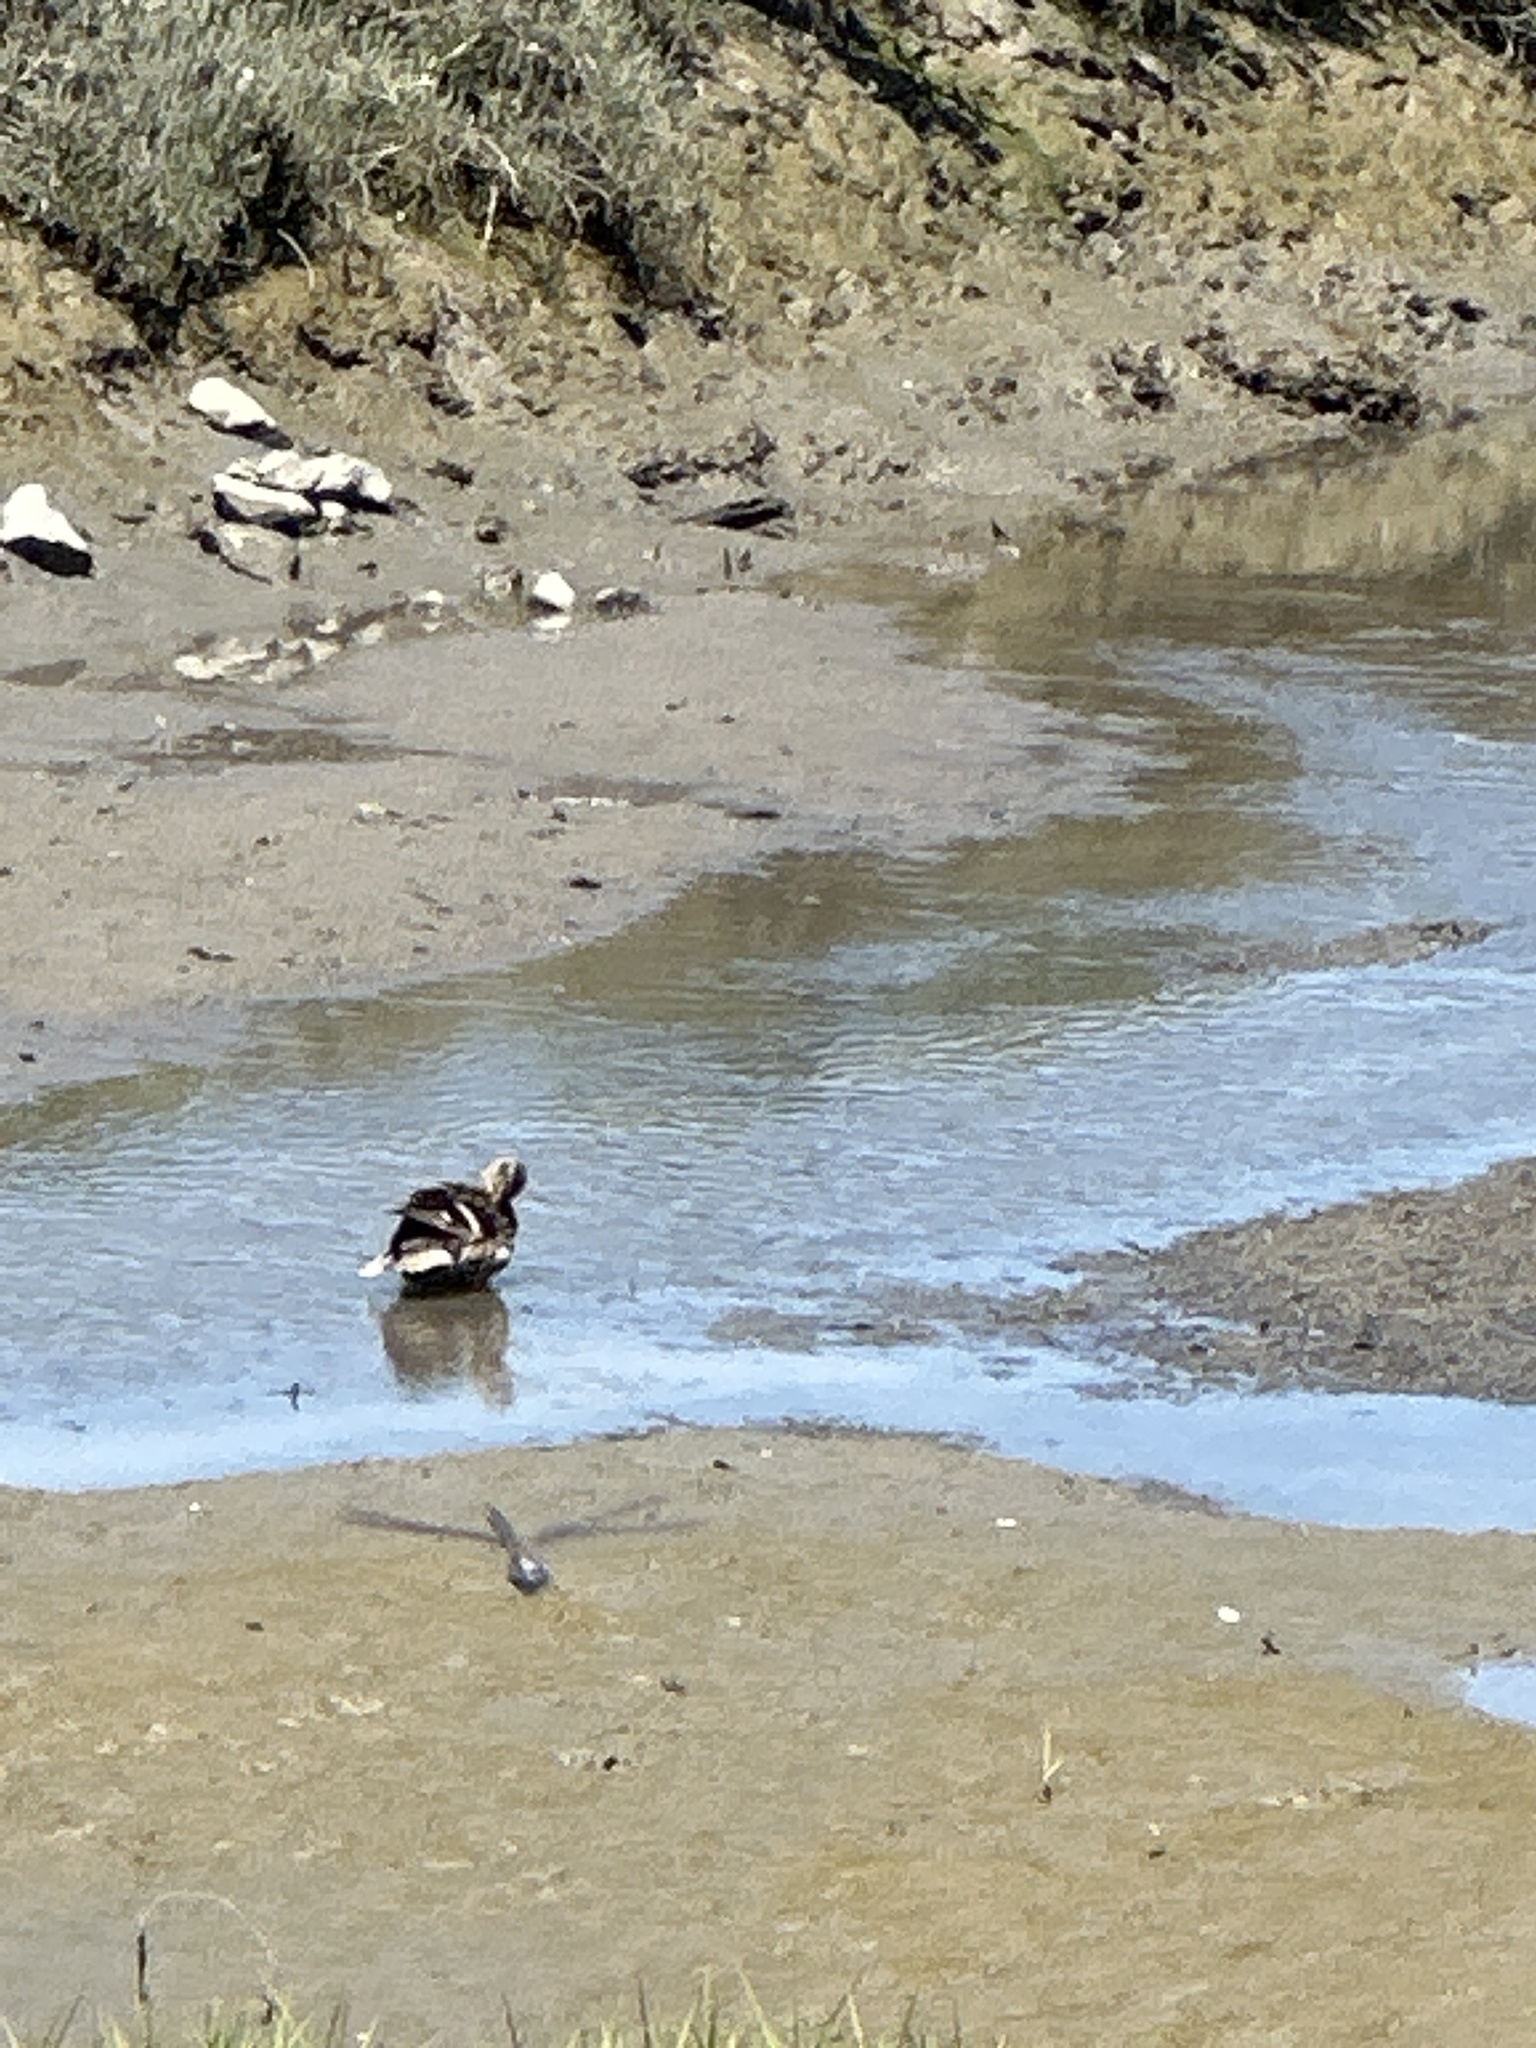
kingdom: Animalia
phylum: Chordata
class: Aves
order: Anseriformes
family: Anatidae
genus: Anas
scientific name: Anas platyrhynchos
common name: Mallard
